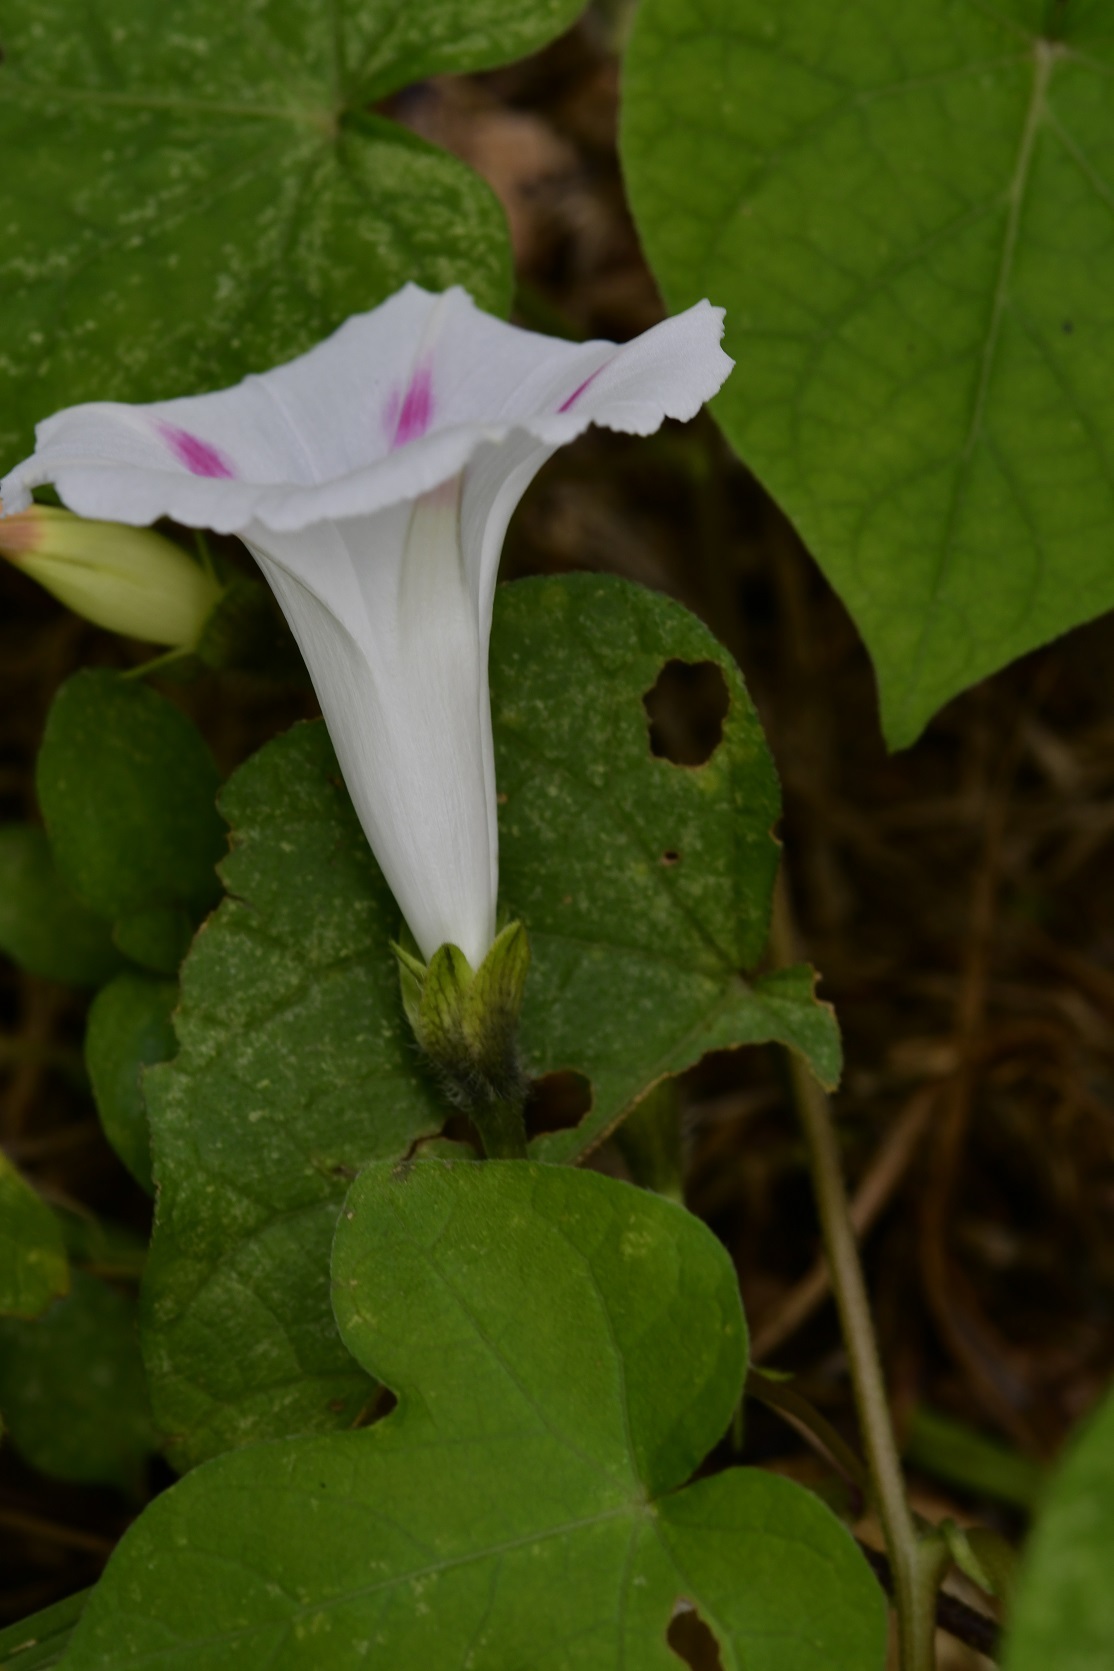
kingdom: Plantae
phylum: Tracheophyta
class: Magnoliopsida
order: Solanales
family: Convolvulaceae
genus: Ipomoea
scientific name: Ipomoea purpurea
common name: Common morning-glory
